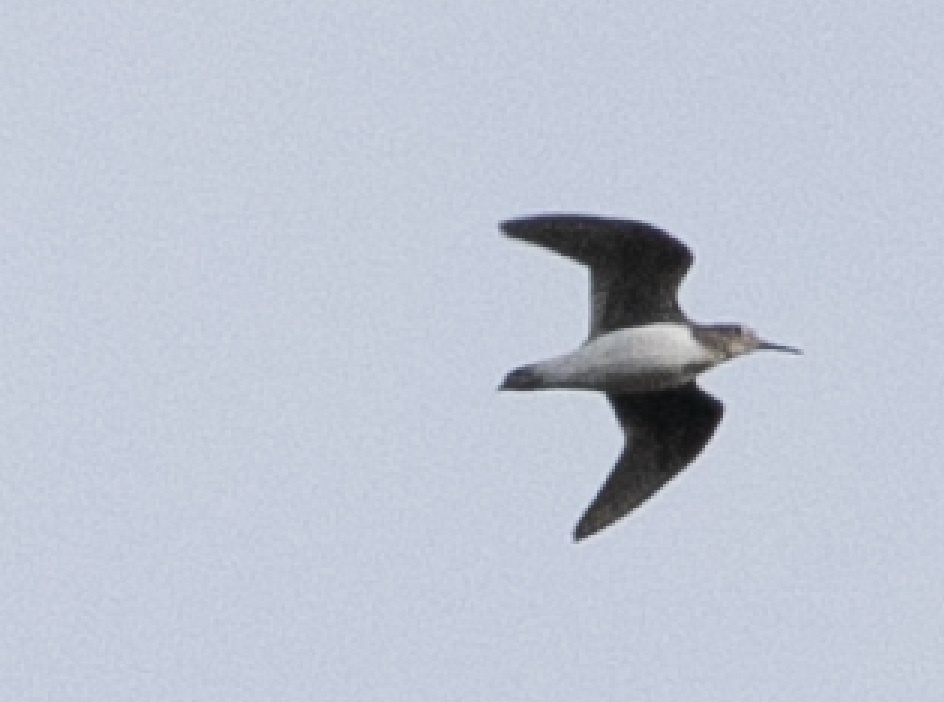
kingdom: Animalia
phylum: Chordata
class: Aves
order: Charadriiformes
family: Scolopacidae
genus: Tringa
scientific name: Tringa ochropus
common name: Green sandpiper
